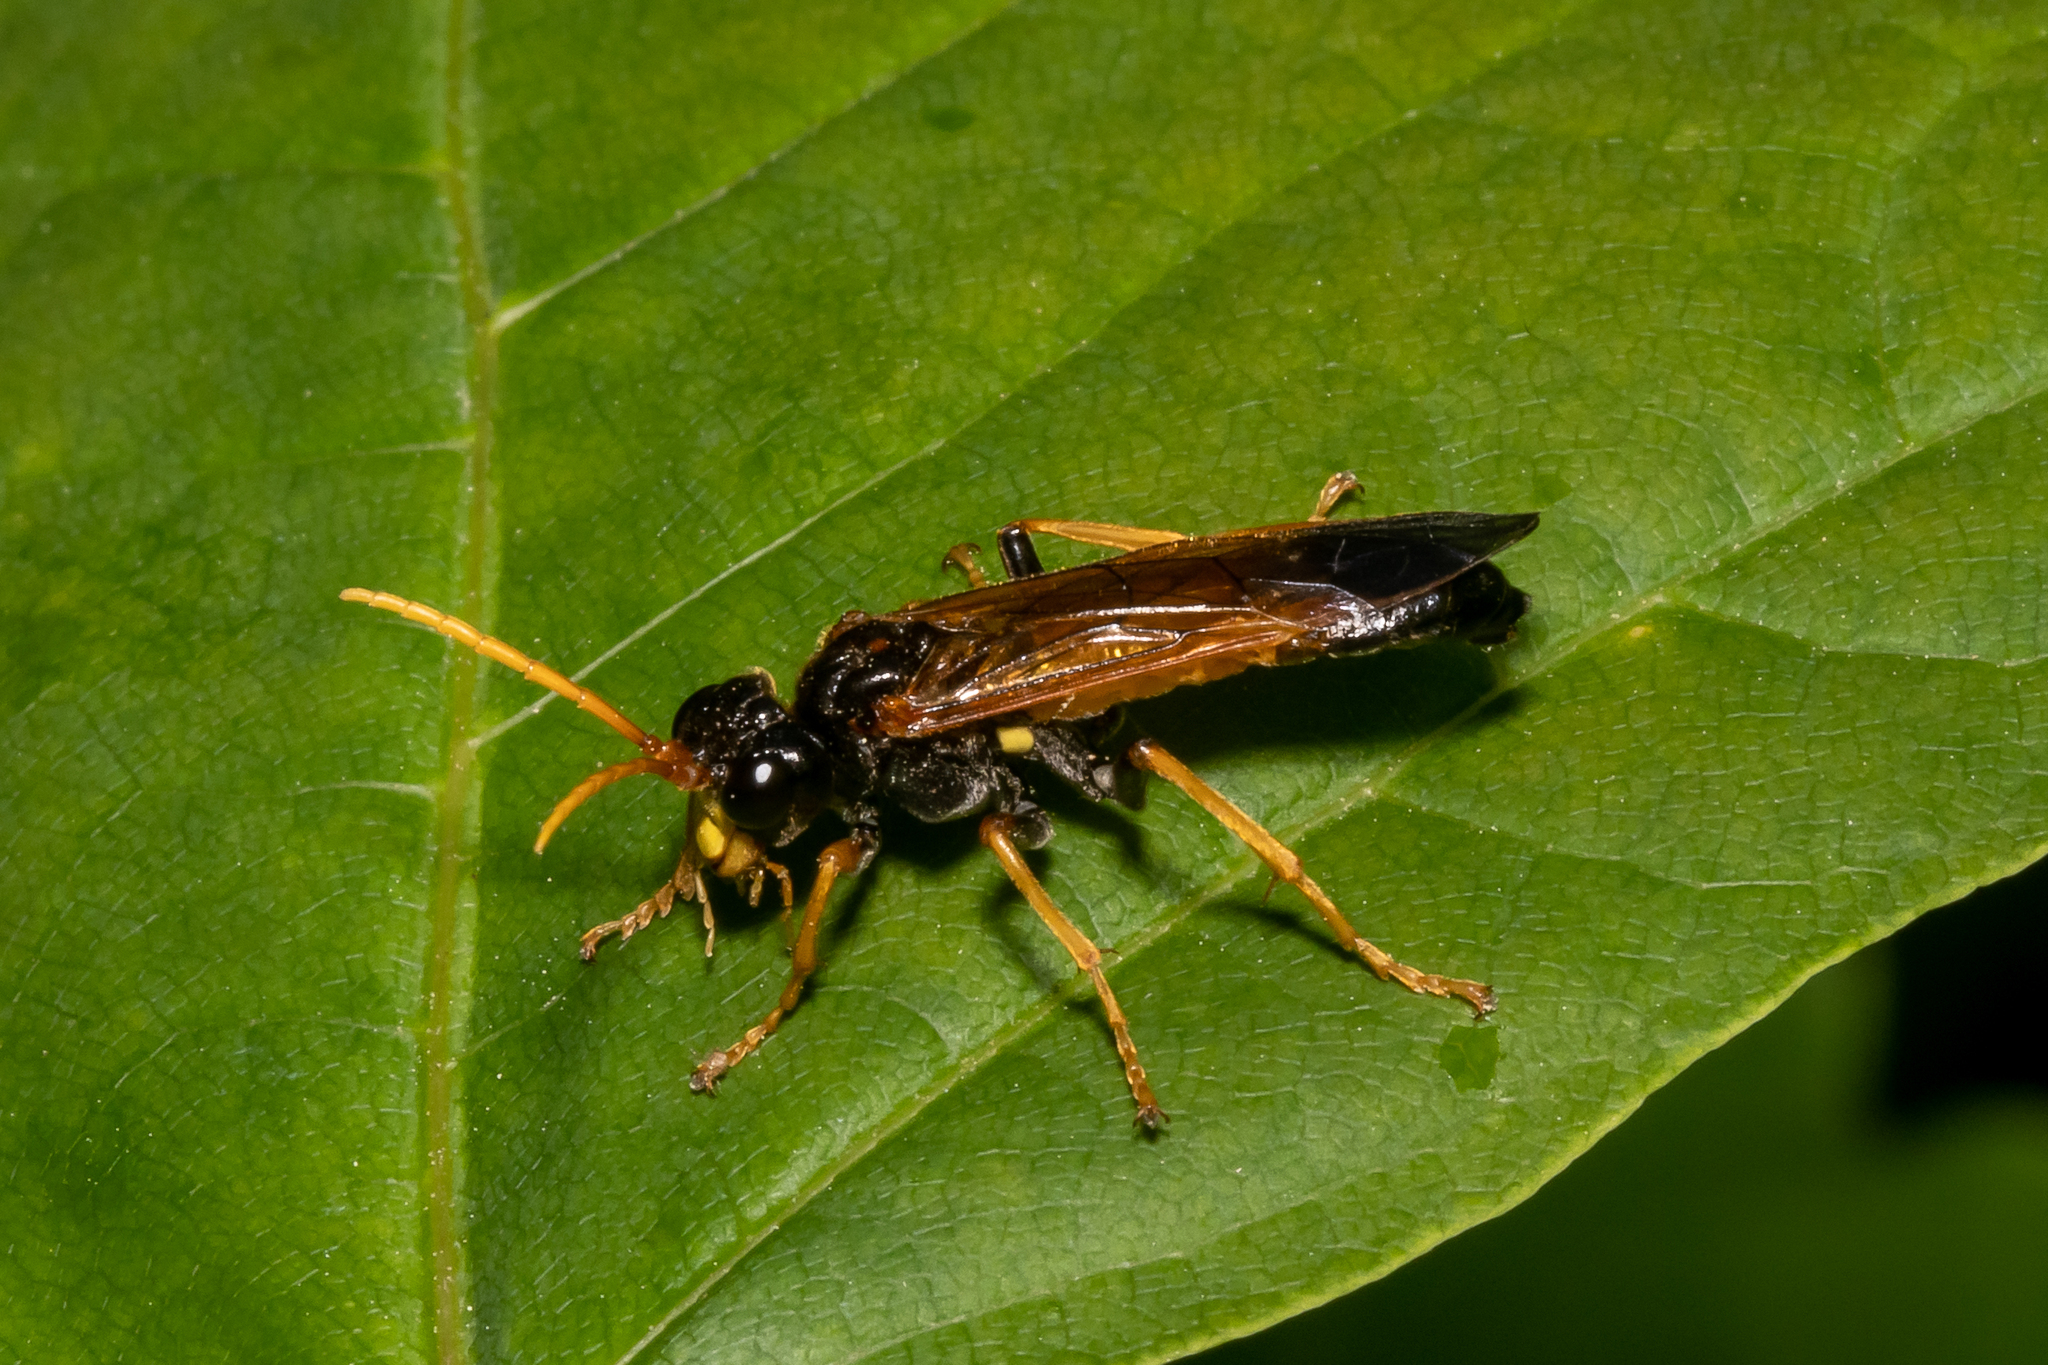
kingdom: Animalia
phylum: Arthropoda
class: Insecta
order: Hymenoptera
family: Tenthredinidae
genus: Tenthredo
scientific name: Tenthredo campestris
